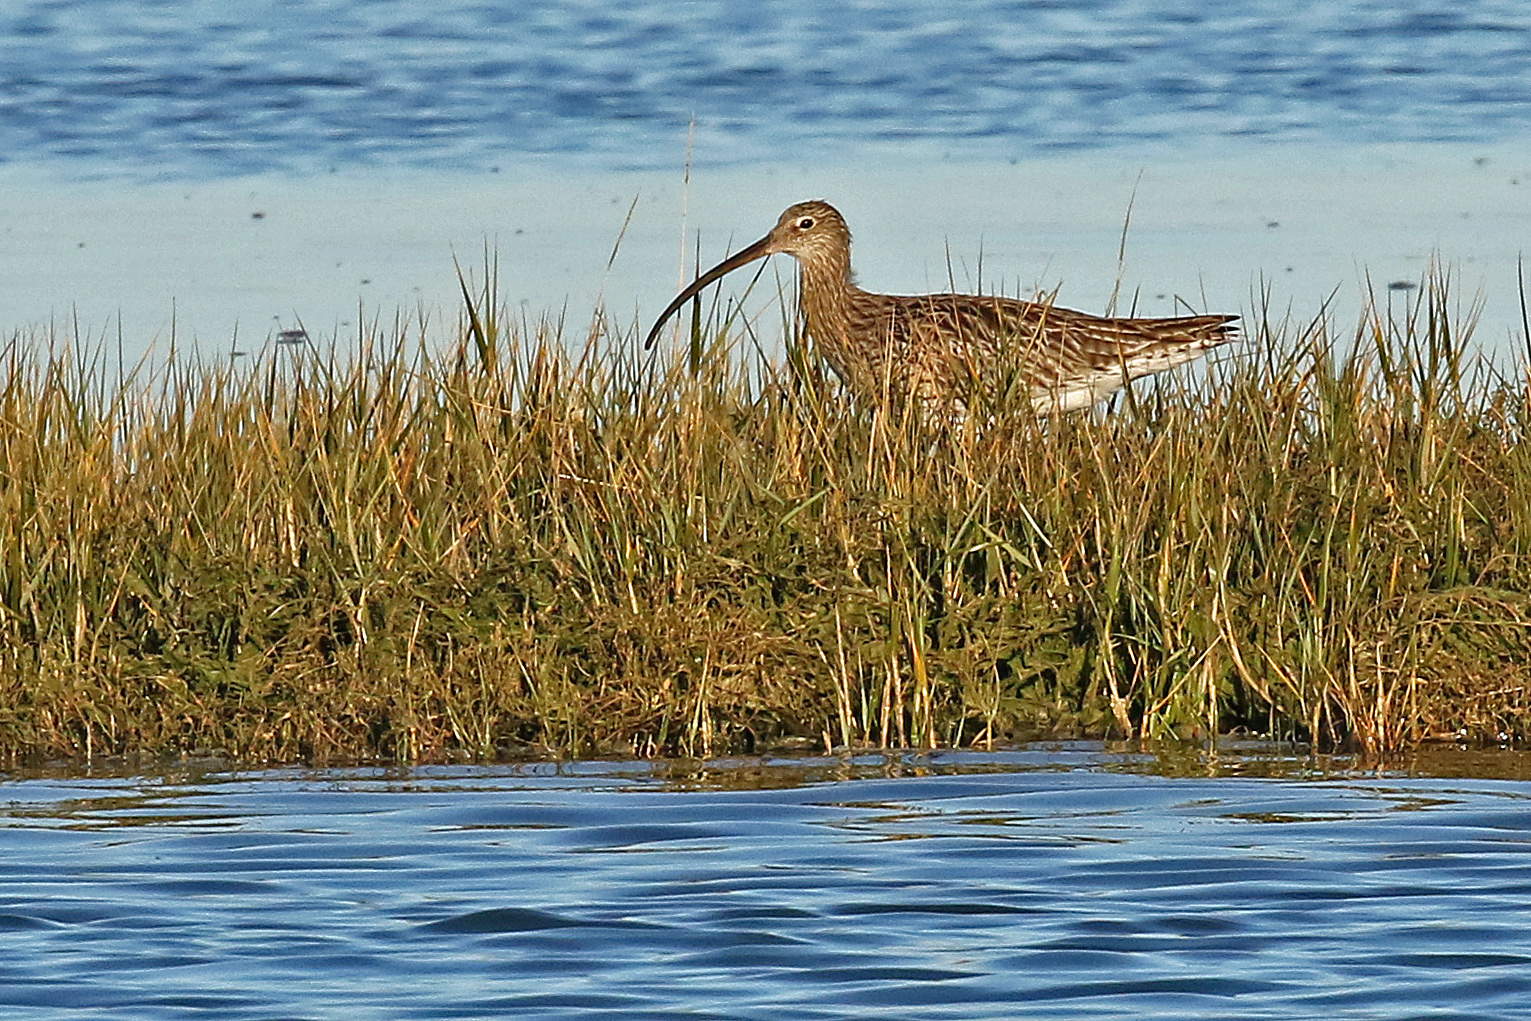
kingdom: Animalia
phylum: Chordata
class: Aves
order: Charadriiformes
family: Scolopacidae
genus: Numenius
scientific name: Numenius arquata
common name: Eurasian curlew
